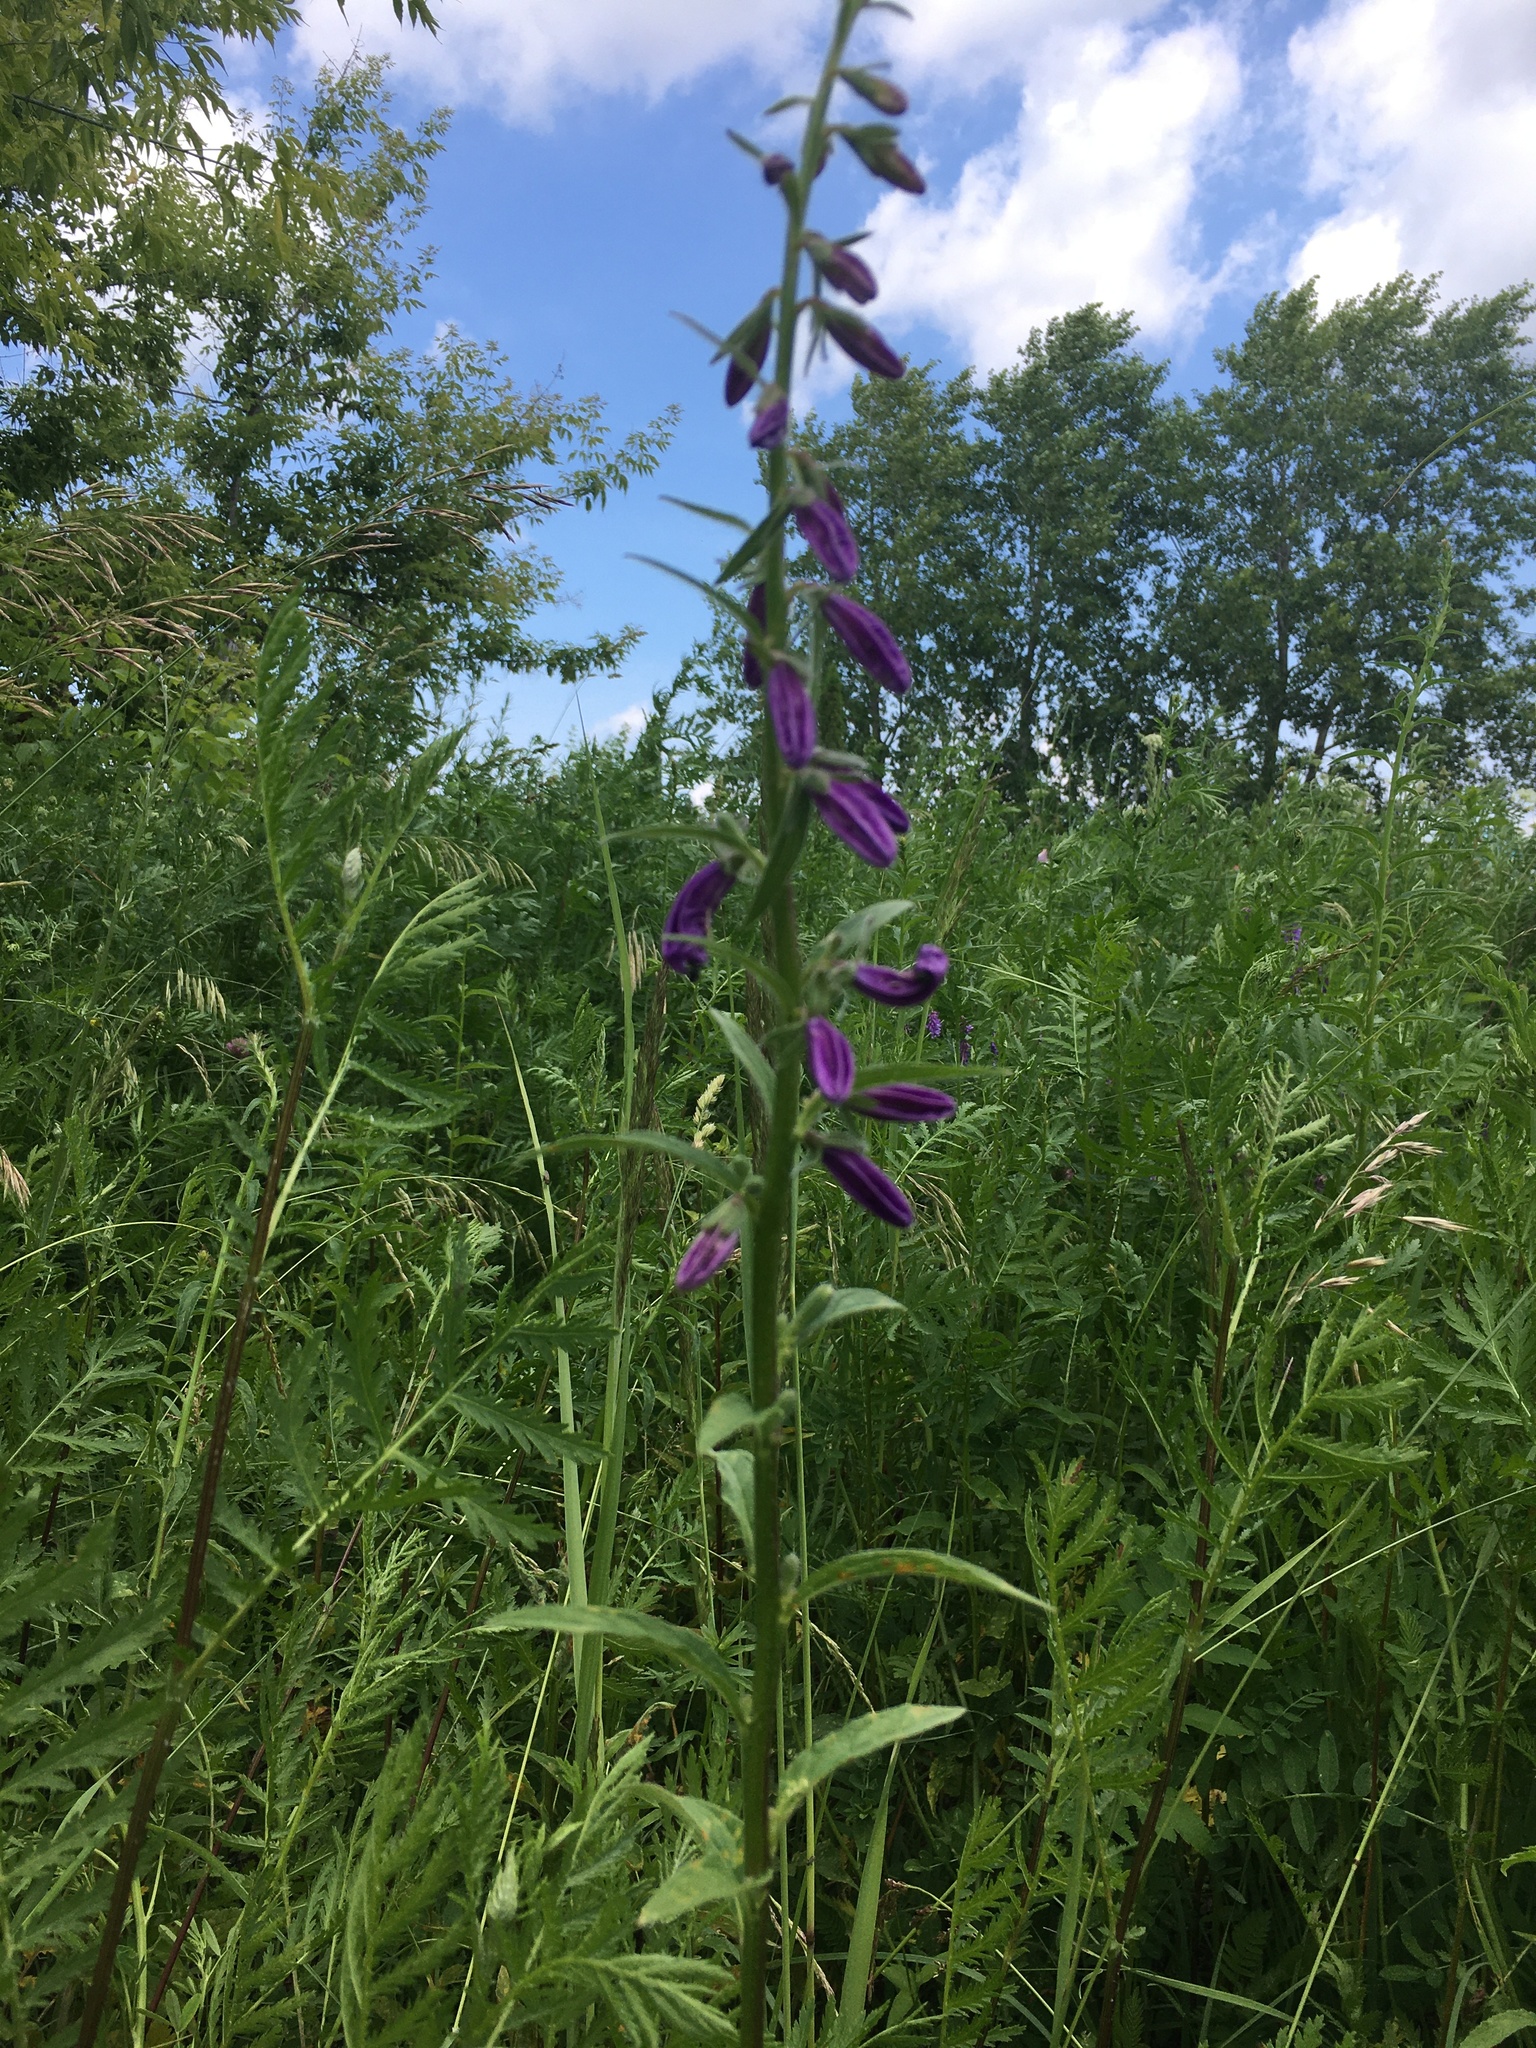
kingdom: Plantae
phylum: Tracheophyta
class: Magnoliopsida
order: Asterales
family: Campanulaceae
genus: Campanula
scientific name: Campanula rapunculoides
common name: Creeping bellflower
